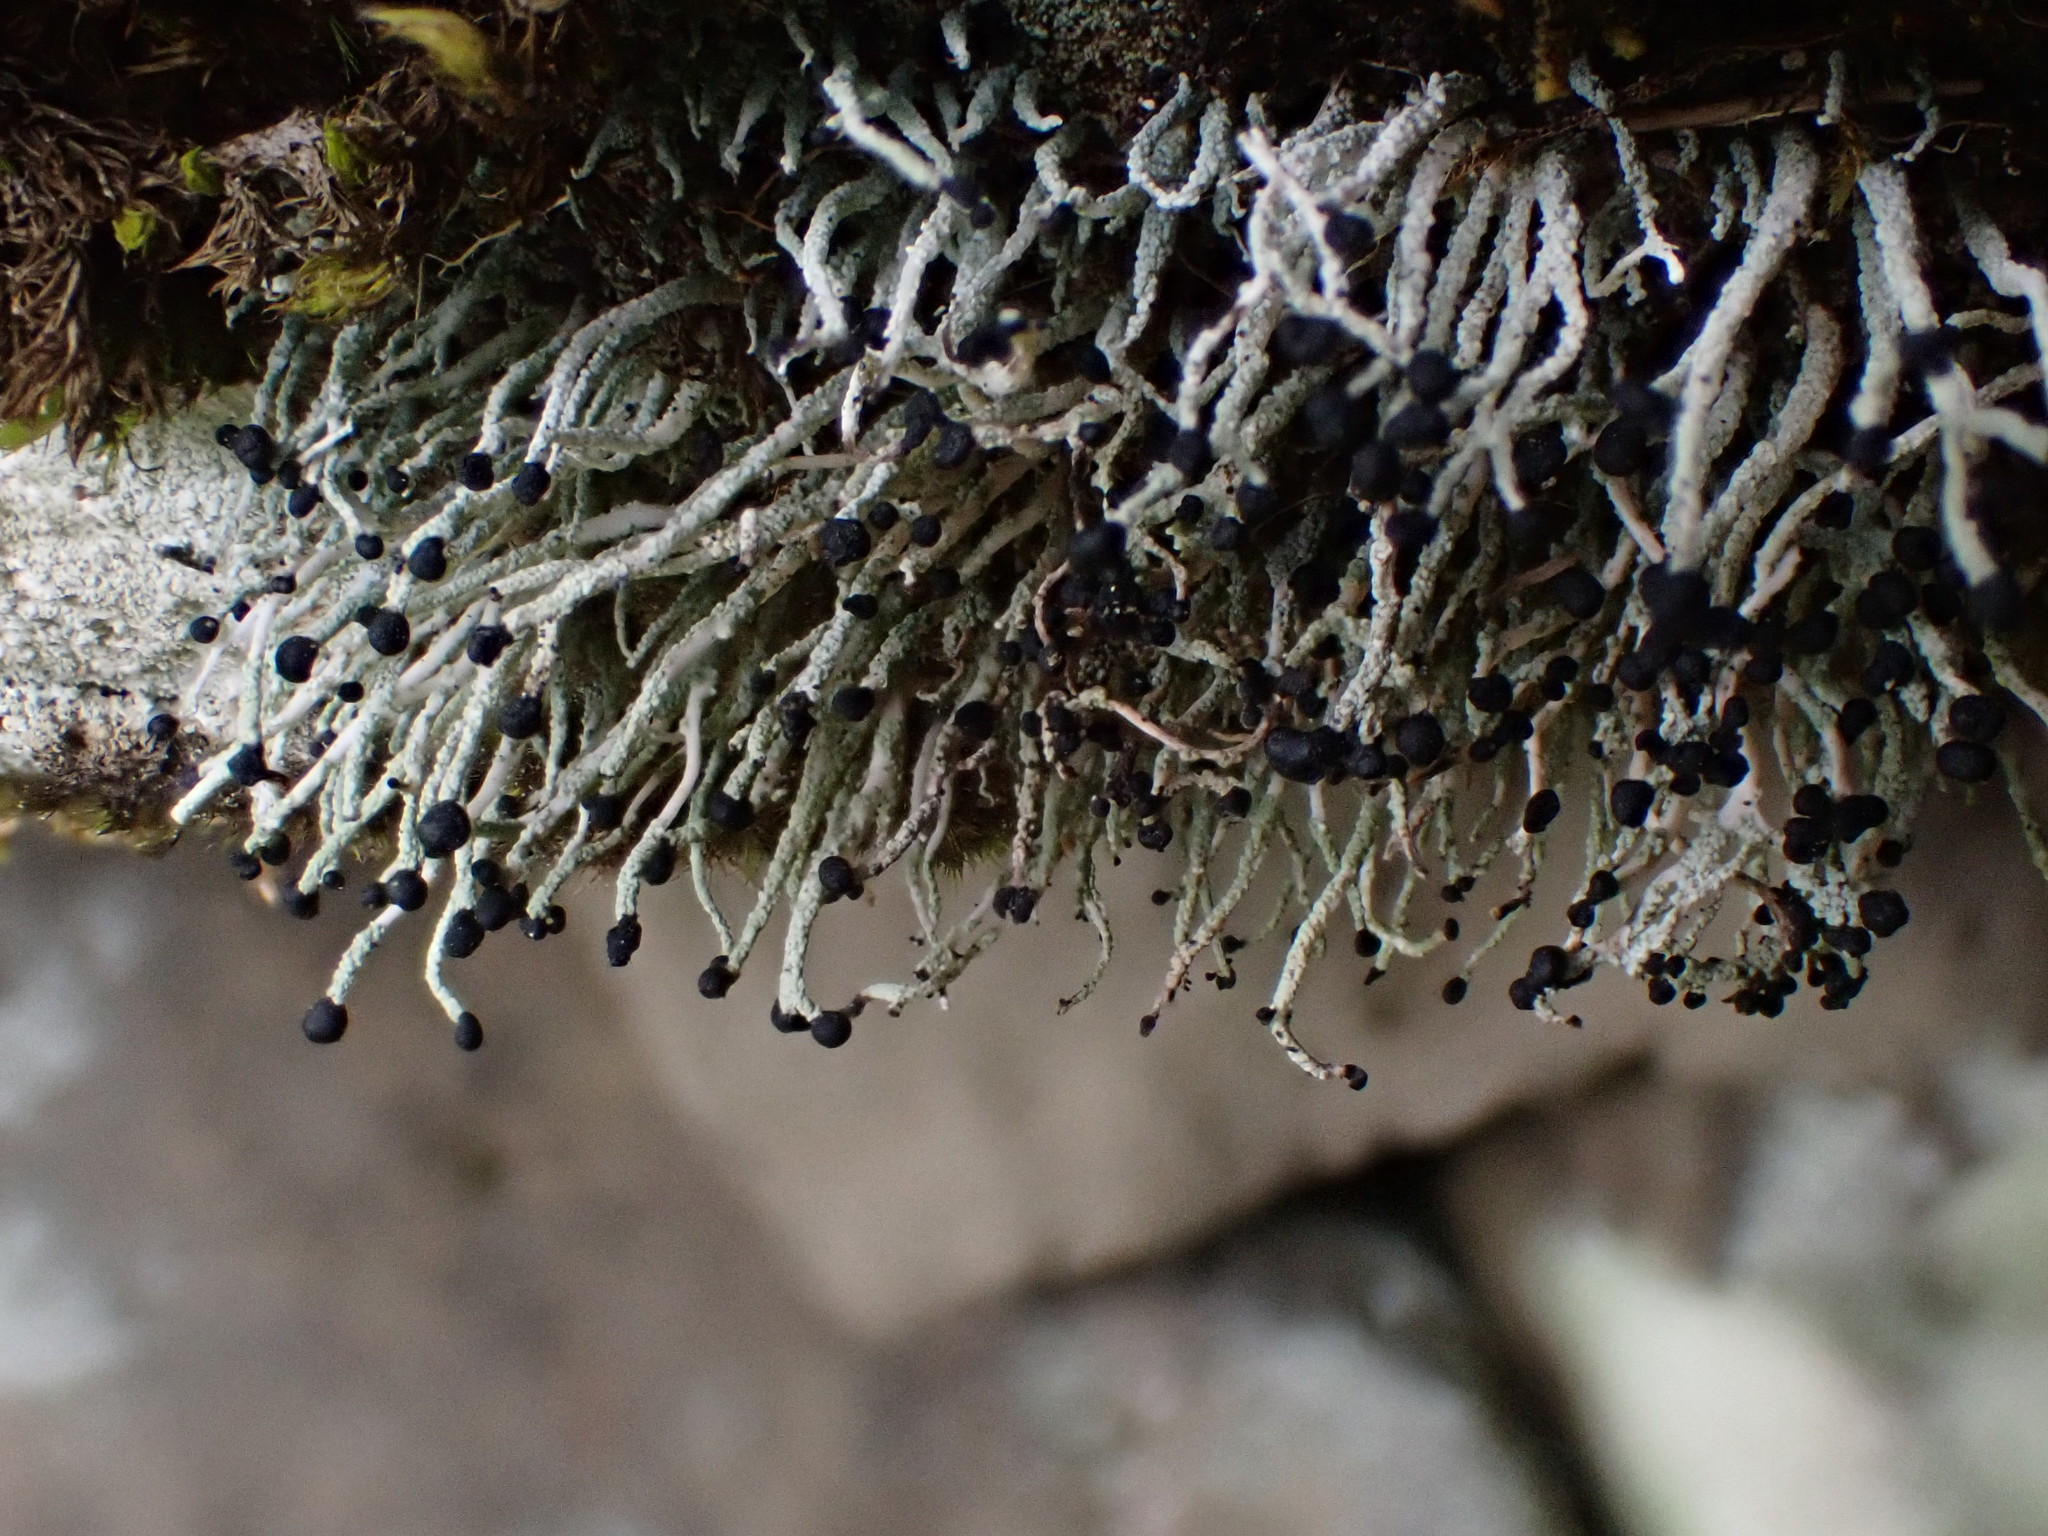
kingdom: Fungi
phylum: Ascomycota
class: Lecanoromycetes
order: Lecanorales
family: Cladoniaceae
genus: Pilophorus
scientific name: Pilophorus acicularis
